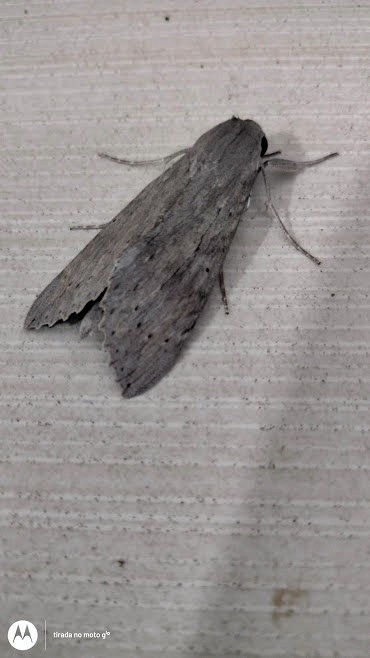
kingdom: Animalia
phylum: Arthropoda
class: Insecta
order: Lepidoptera
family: Sphingidae
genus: Erinnyis
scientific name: Erinnyis ello
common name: Ello sphinx
